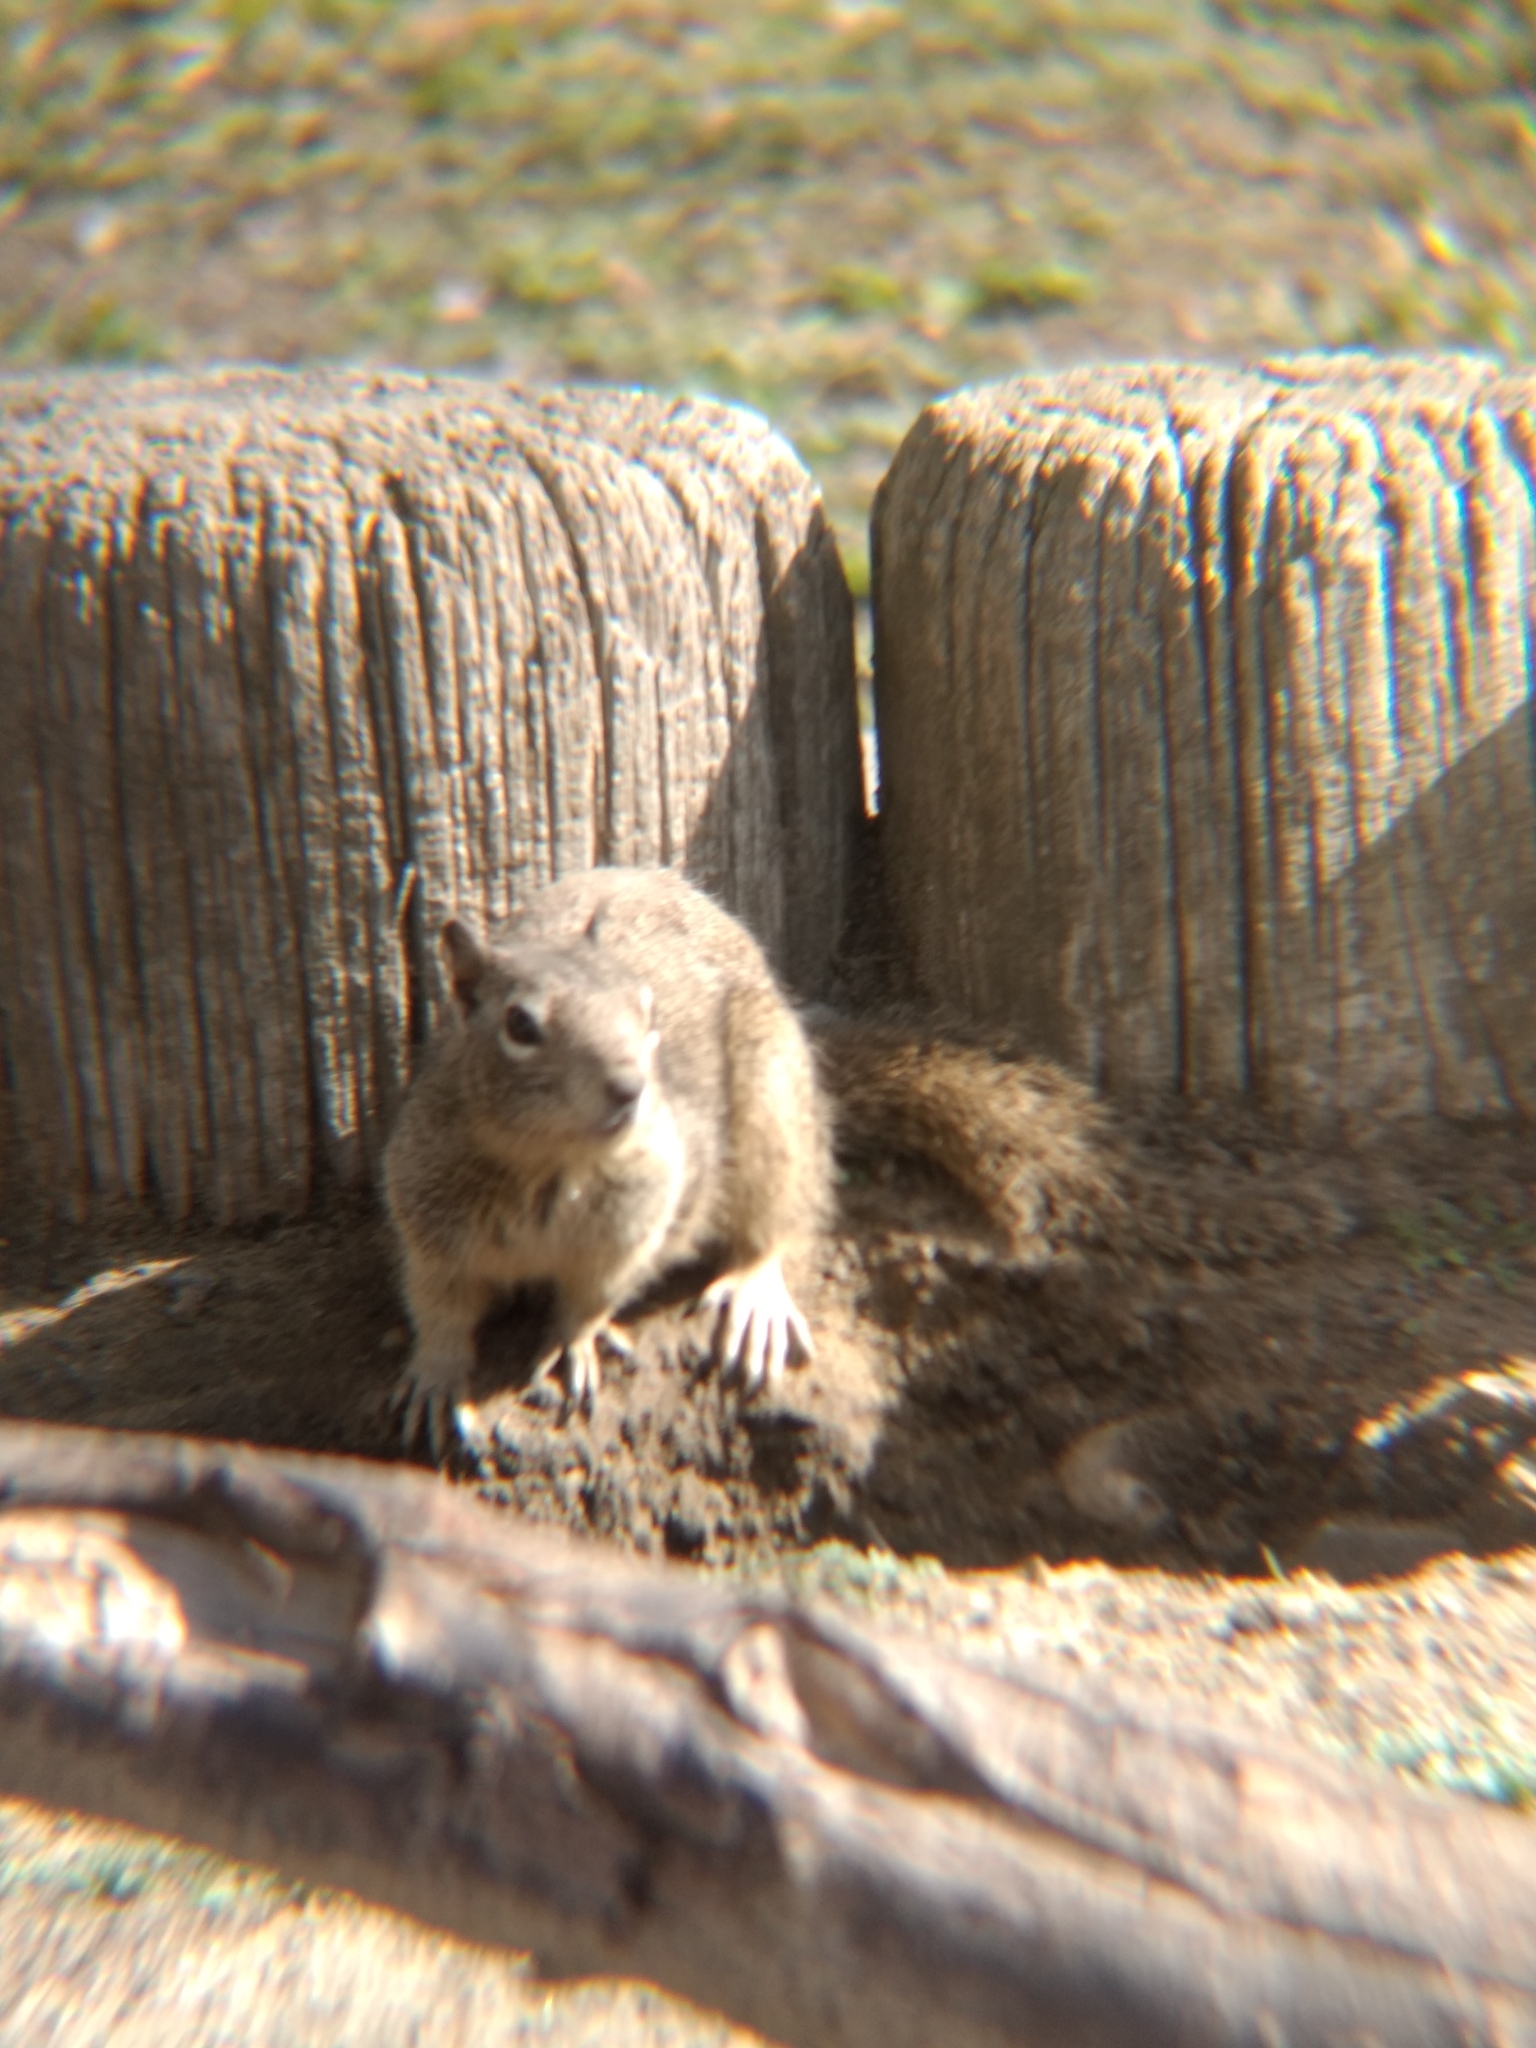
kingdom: Animalia
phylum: Chordata
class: Mammalia
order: Rodentia
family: Sciuridae
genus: Otospermophilus
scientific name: Otospermophilus beecheyi
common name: California ground squirrel
